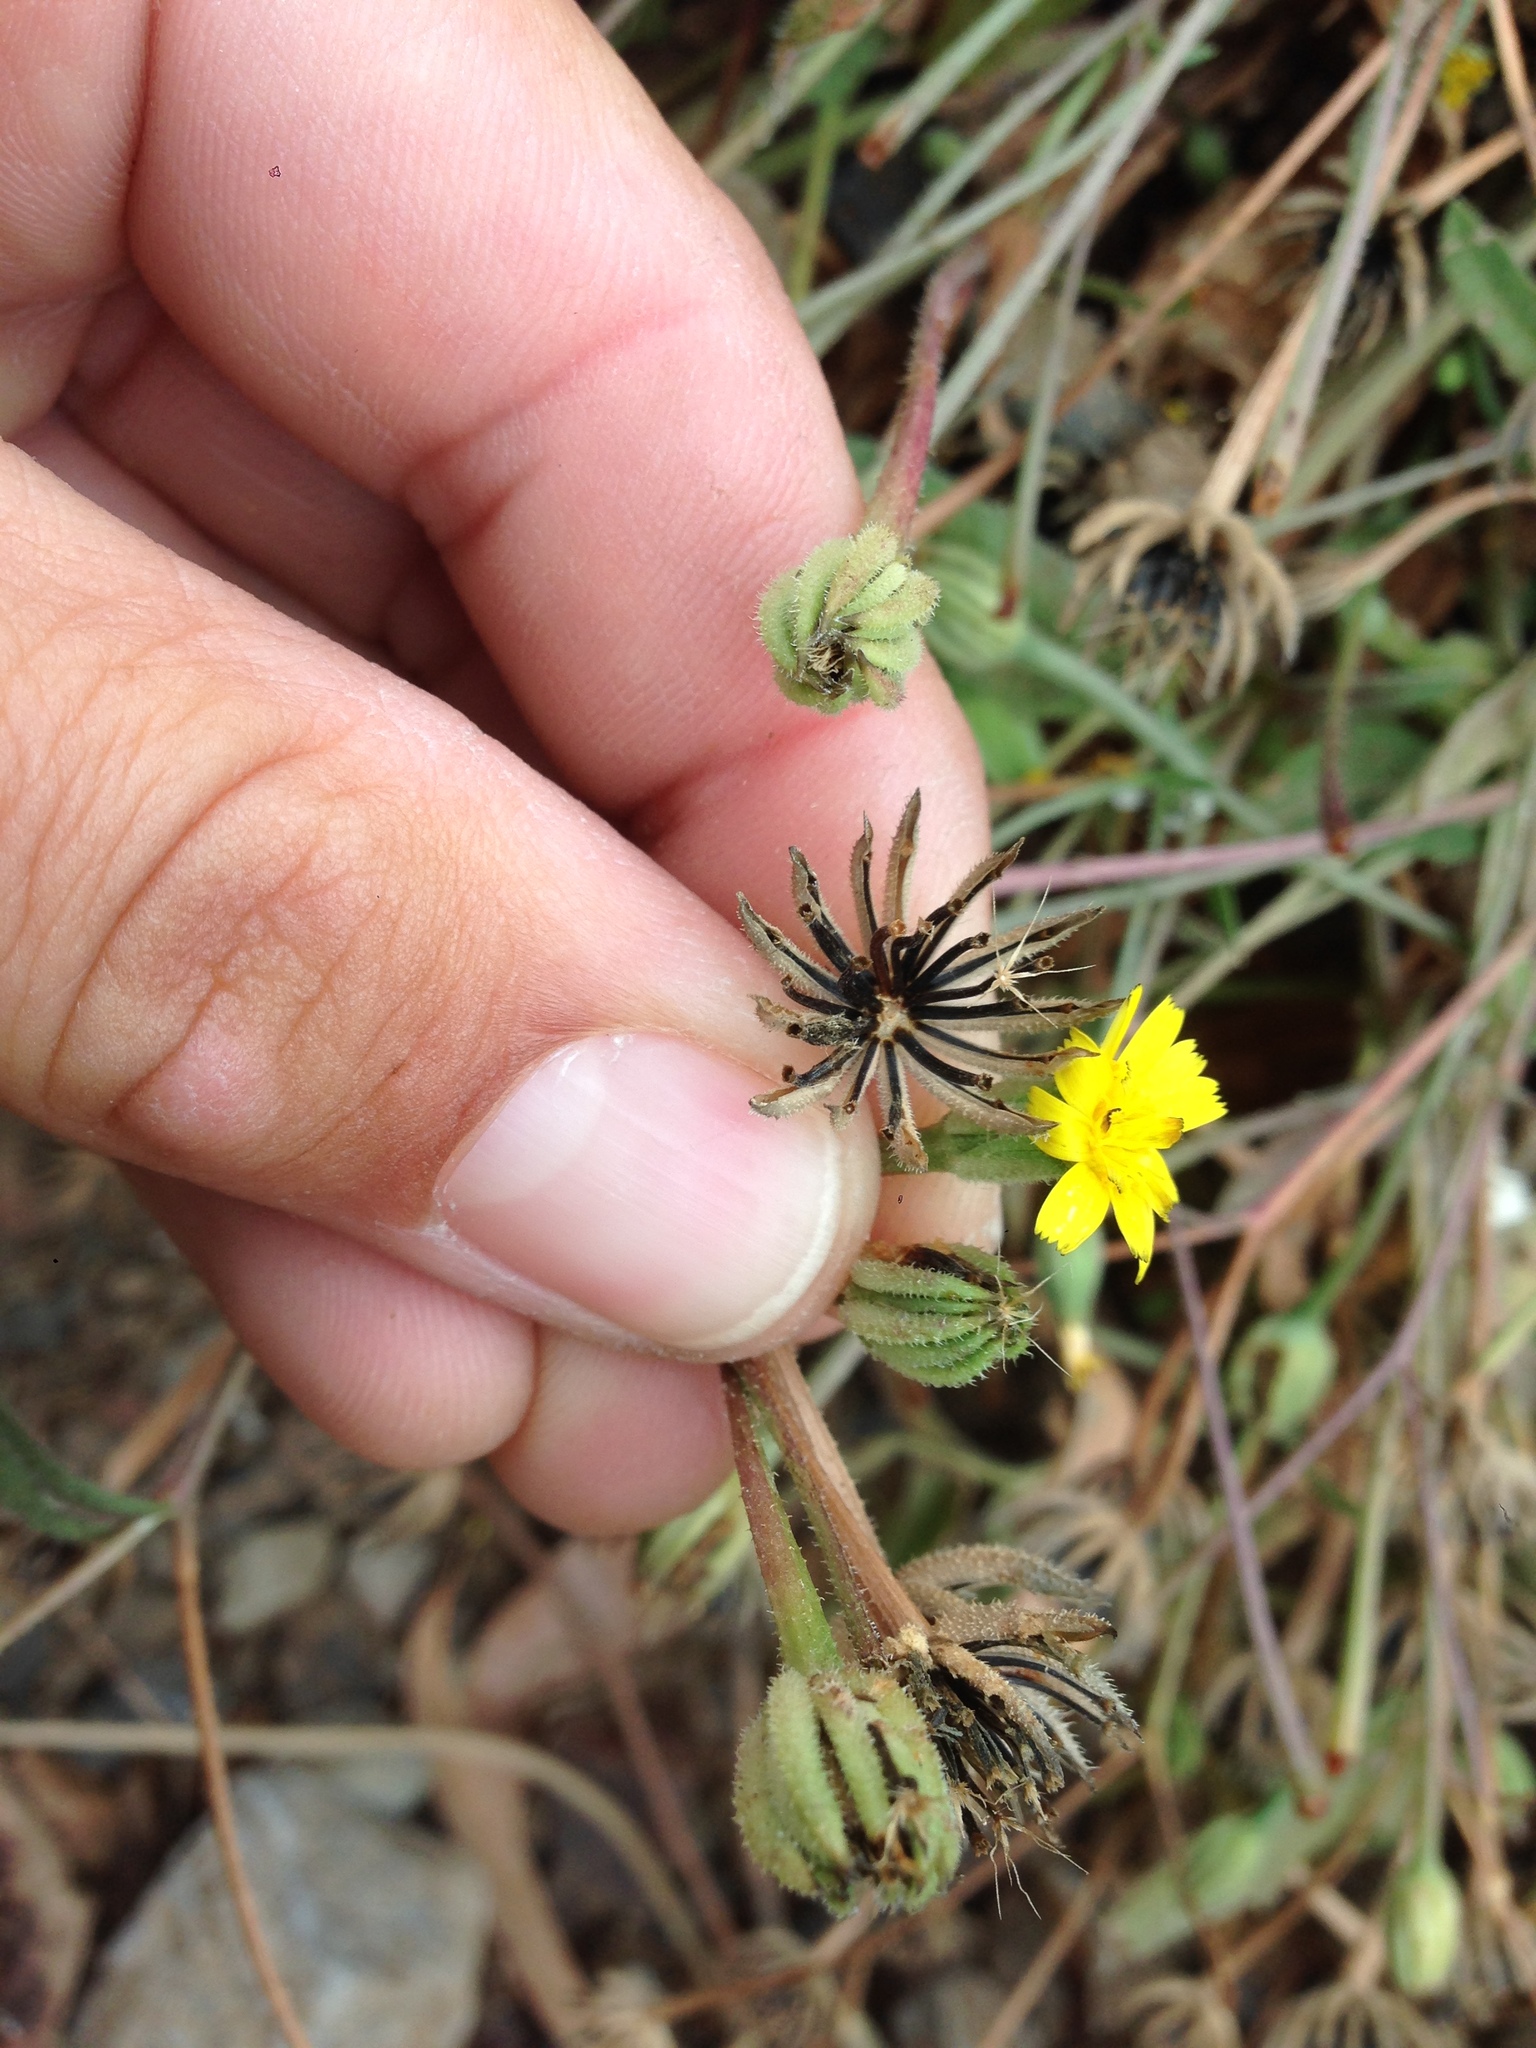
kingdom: Plantae
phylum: Tracheophyta
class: Magnoliopsida
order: Asterales
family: Asteraceae
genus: Hedypnois
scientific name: Hedypnois rhagadioloides
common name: Cretan weed
